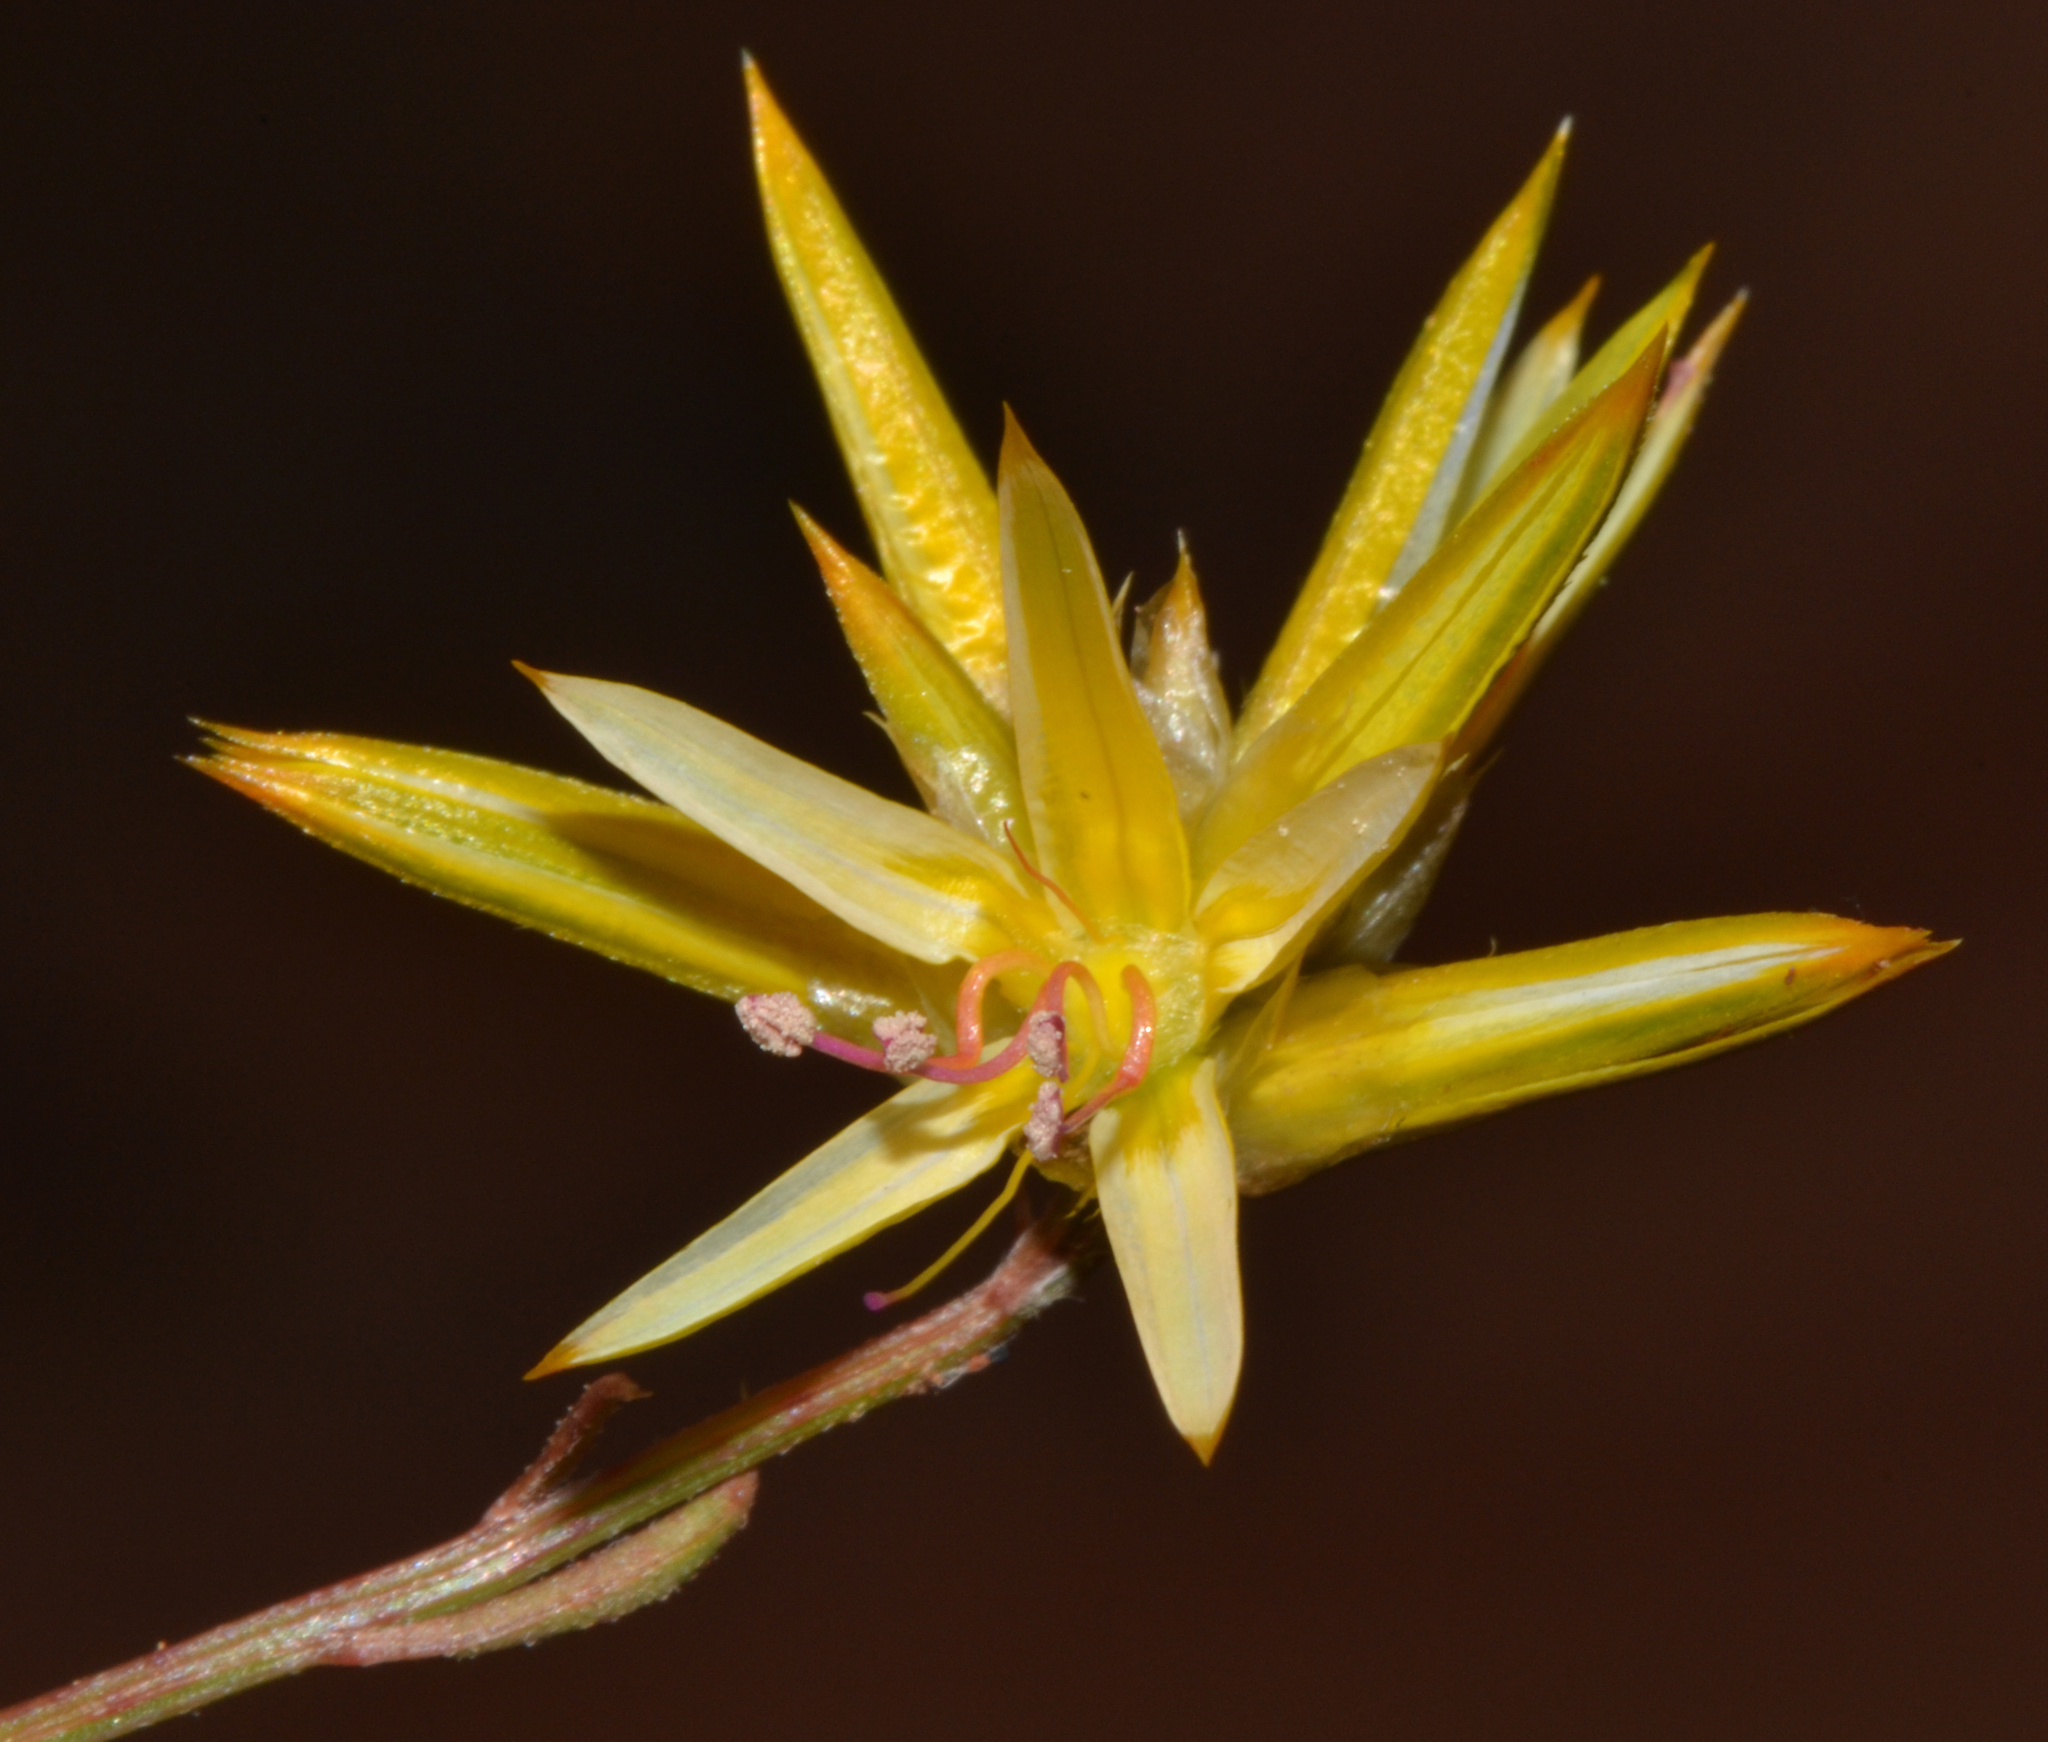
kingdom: Plantae
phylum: Tracheophyta
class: Magnoliopsida
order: Caryophyllales
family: Amaranthaceae
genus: Ptilotus
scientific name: Ptilotus gaudichaudii
